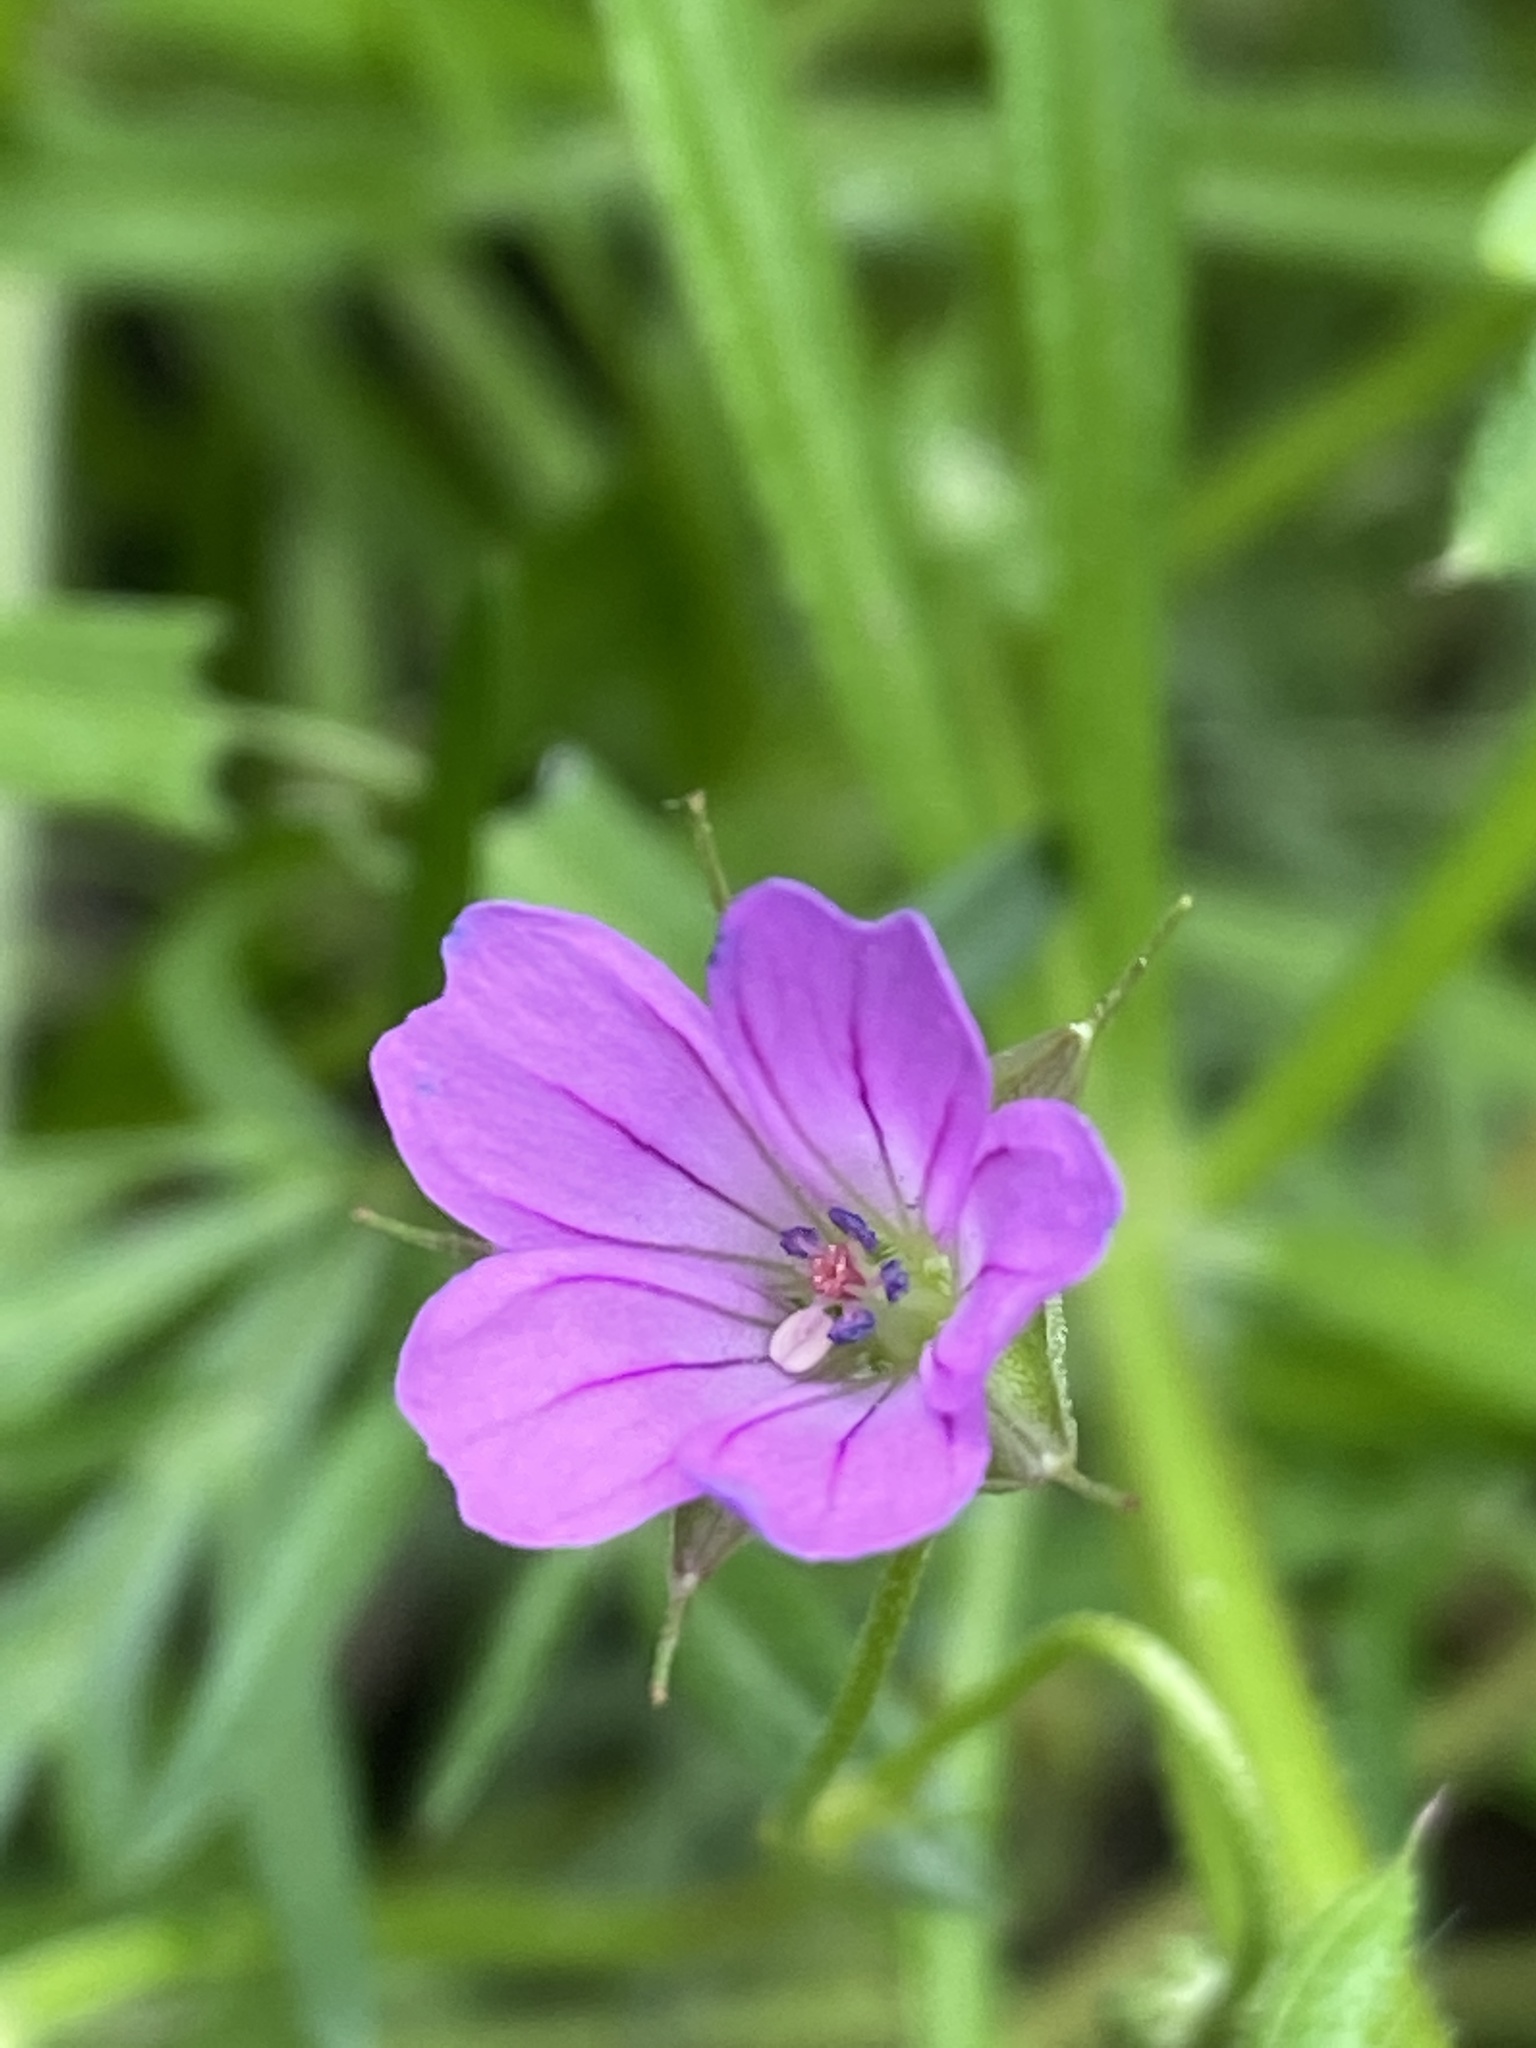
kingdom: Plantae
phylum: Tracheophyta
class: Magnoliopsida
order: Geraniales
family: Geraniaceae
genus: Geranium
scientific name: Geranium dissectum
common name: Cut-leaved crane's-bill
